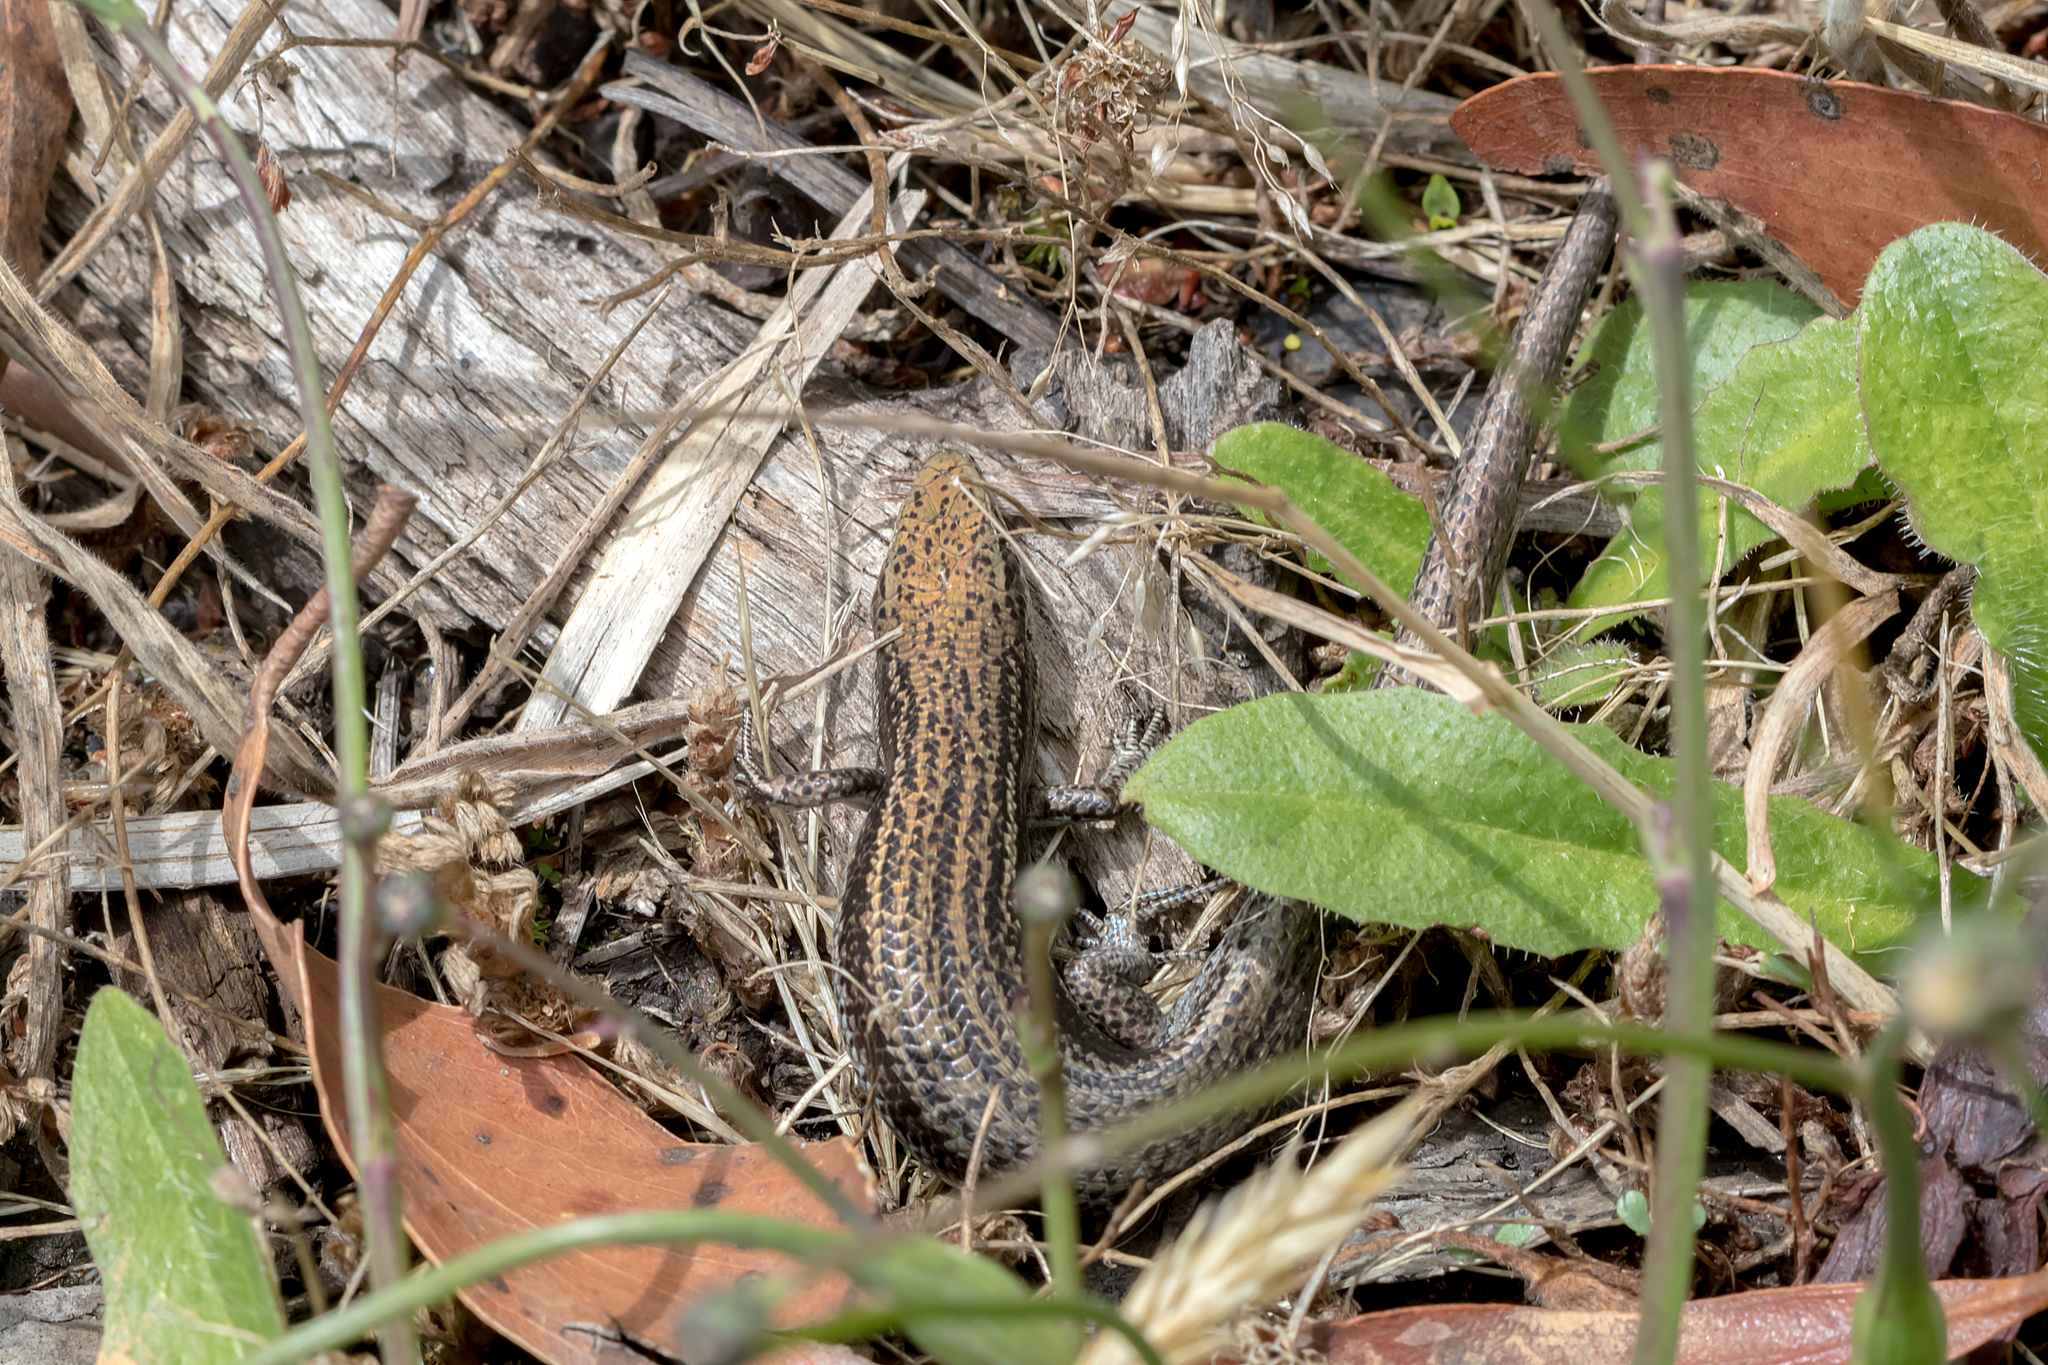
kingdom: Animalia
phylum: Chordata
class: Squamata
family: Scincidae
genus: Pseudemoia
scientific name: Pseudemoia entrecasteauxii
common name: Entrecasteaux's skink
